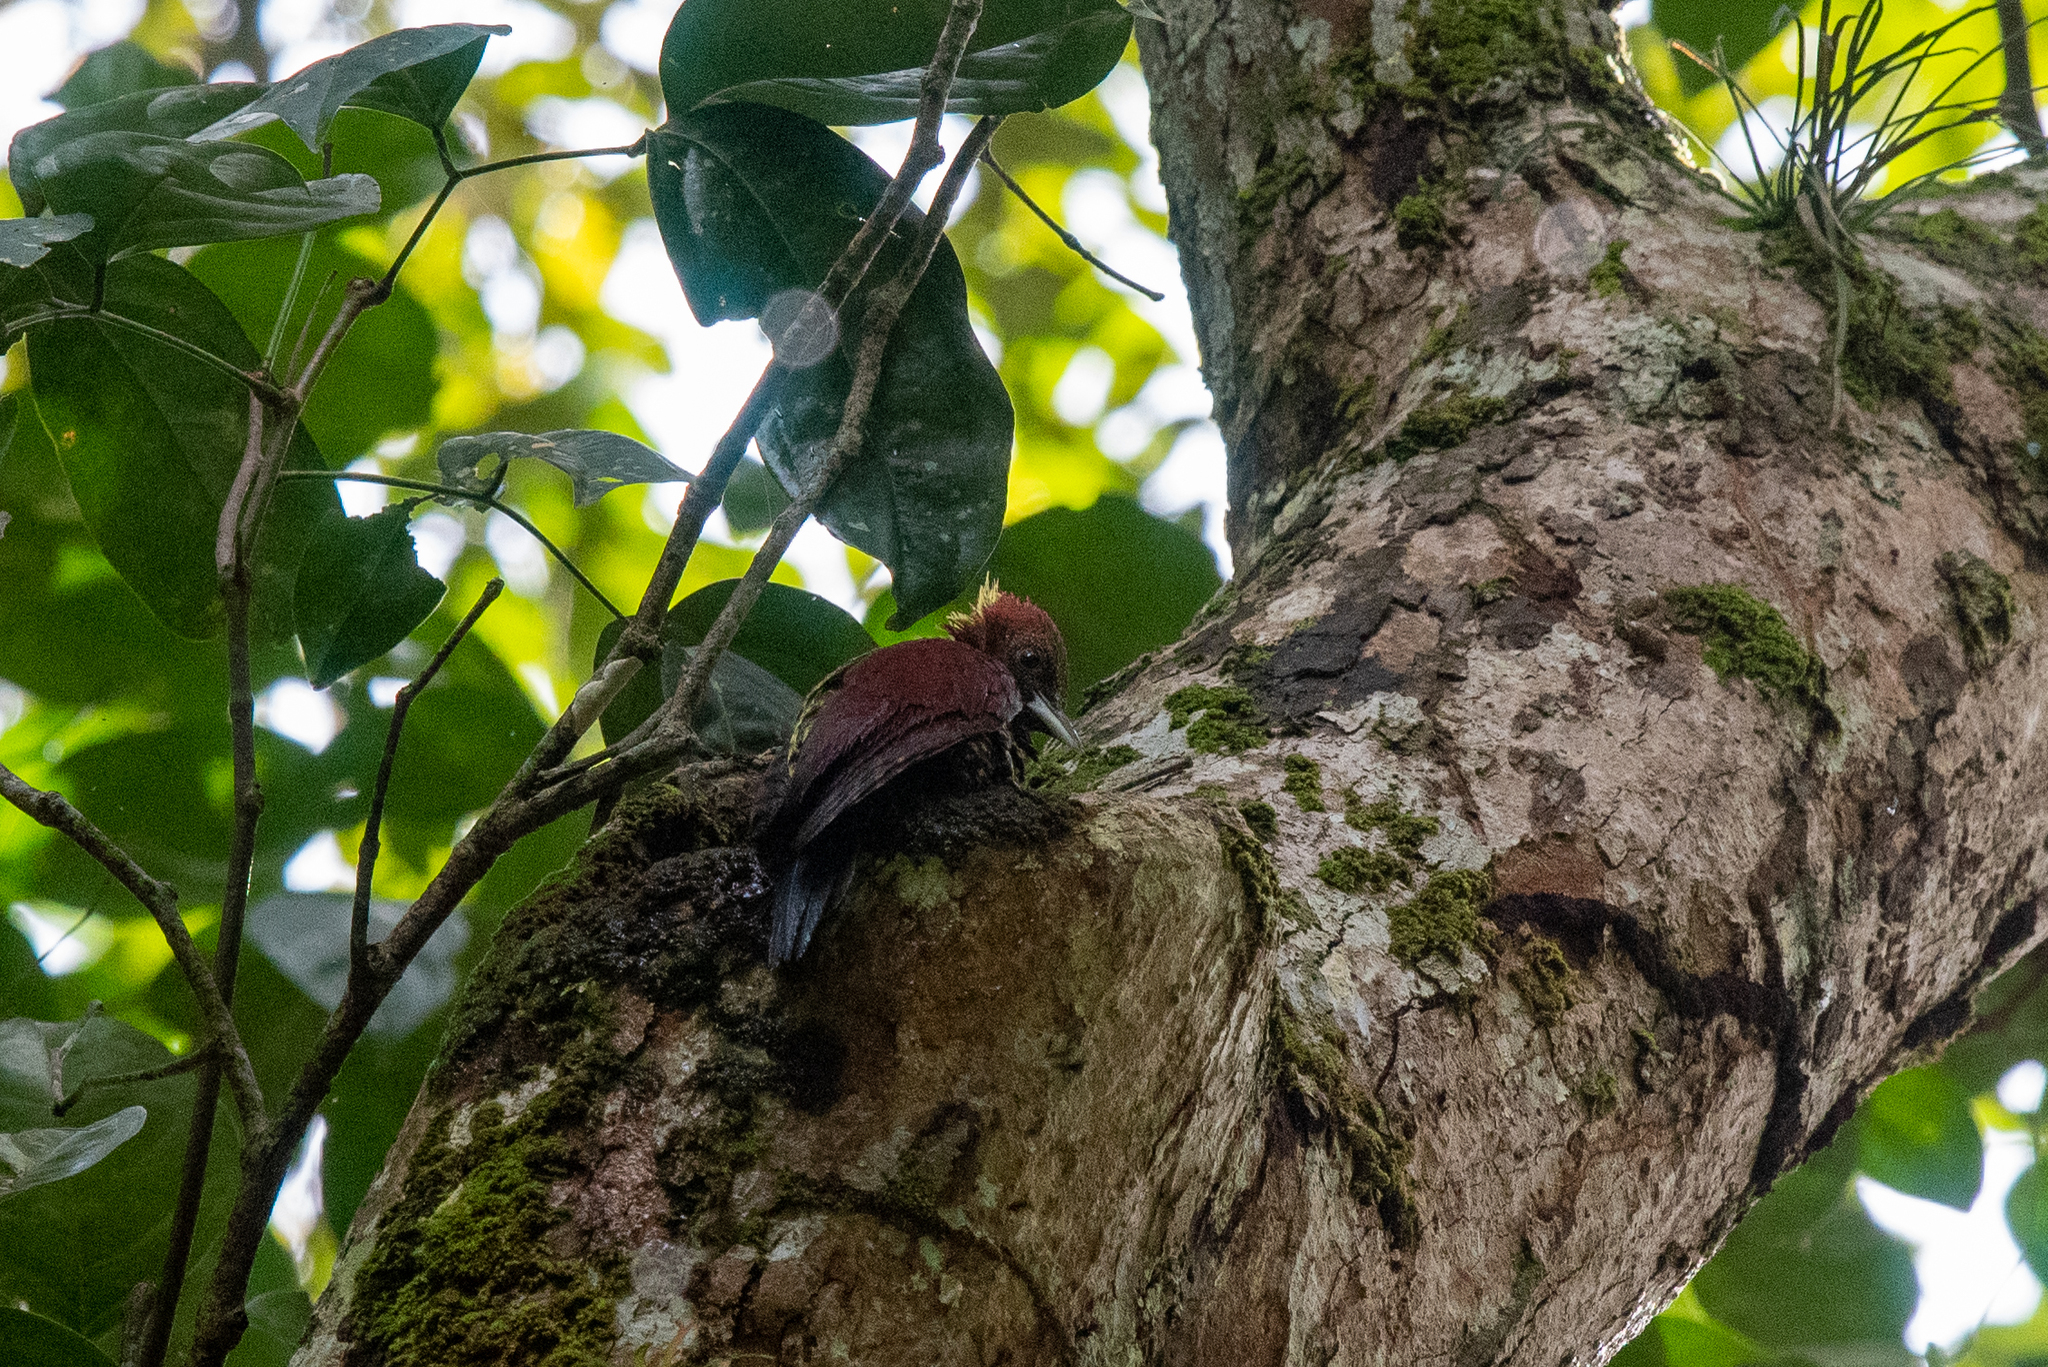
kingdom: Animalia
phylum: Chordata
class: Aves
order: Piciformes
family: Picidae
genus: Chrysophlegma
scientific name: Chrysophlegma miniaceum
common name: Banded woodpecker
